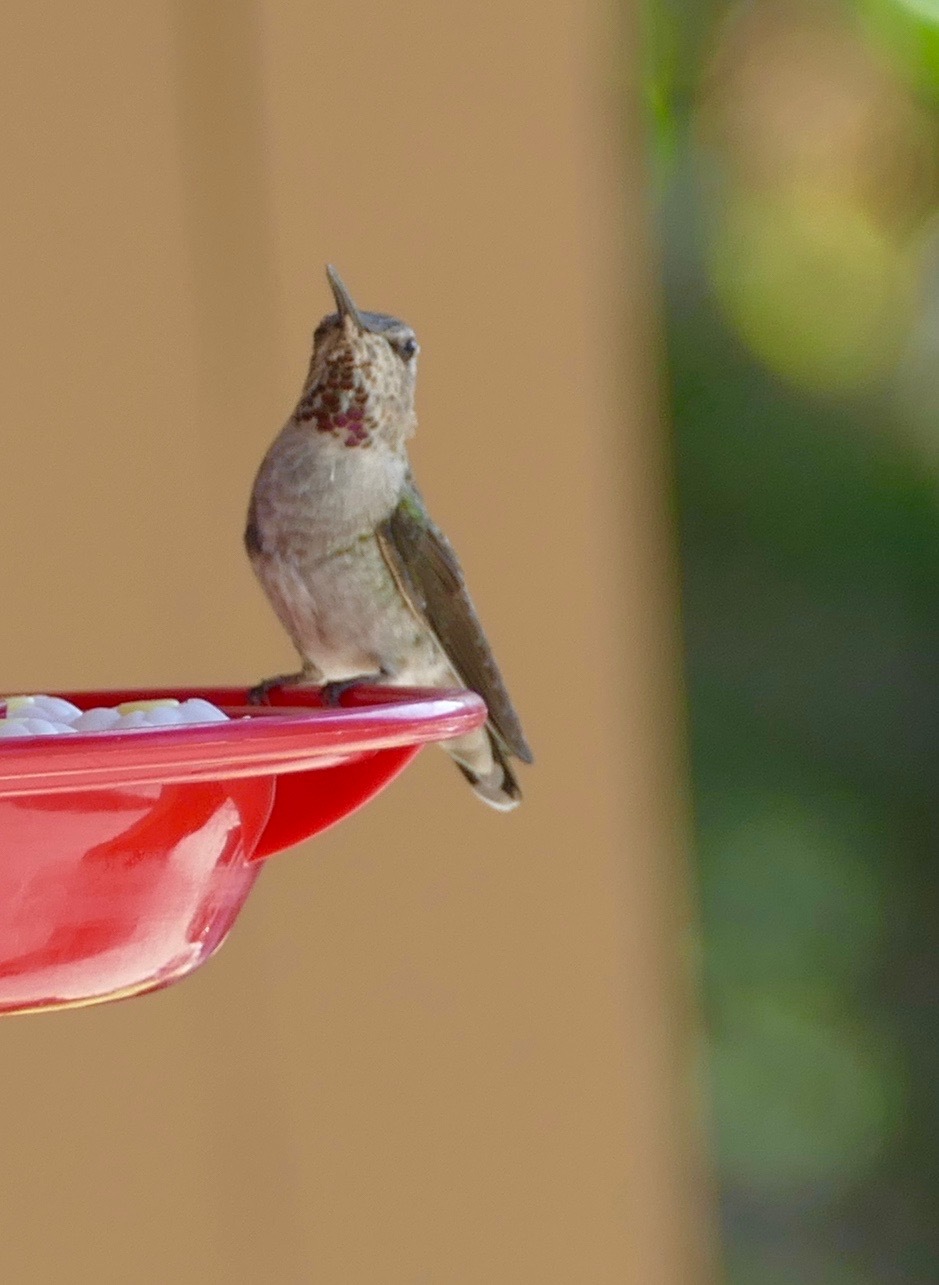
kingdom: Animalia
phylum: Chordata
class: Aves
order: Apodiformes
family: Trochilidae
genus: Selasphorus
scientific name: Selasphorus calliope
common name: Calliope hummingbird
